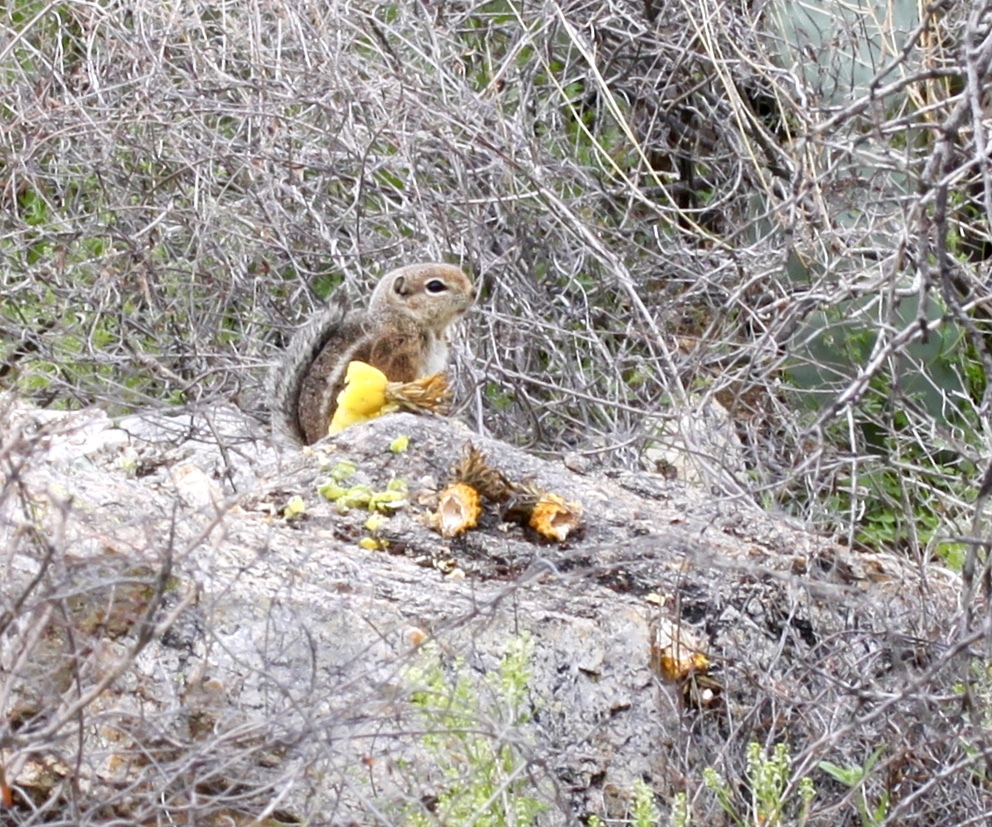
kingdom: Animalia
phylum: Chordata
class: Mammalia
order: Rodentia
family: Sciuridae
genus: Ammospermophilus
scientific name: Ammospermophilus harrisii
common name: Harris's antelope squirrel
